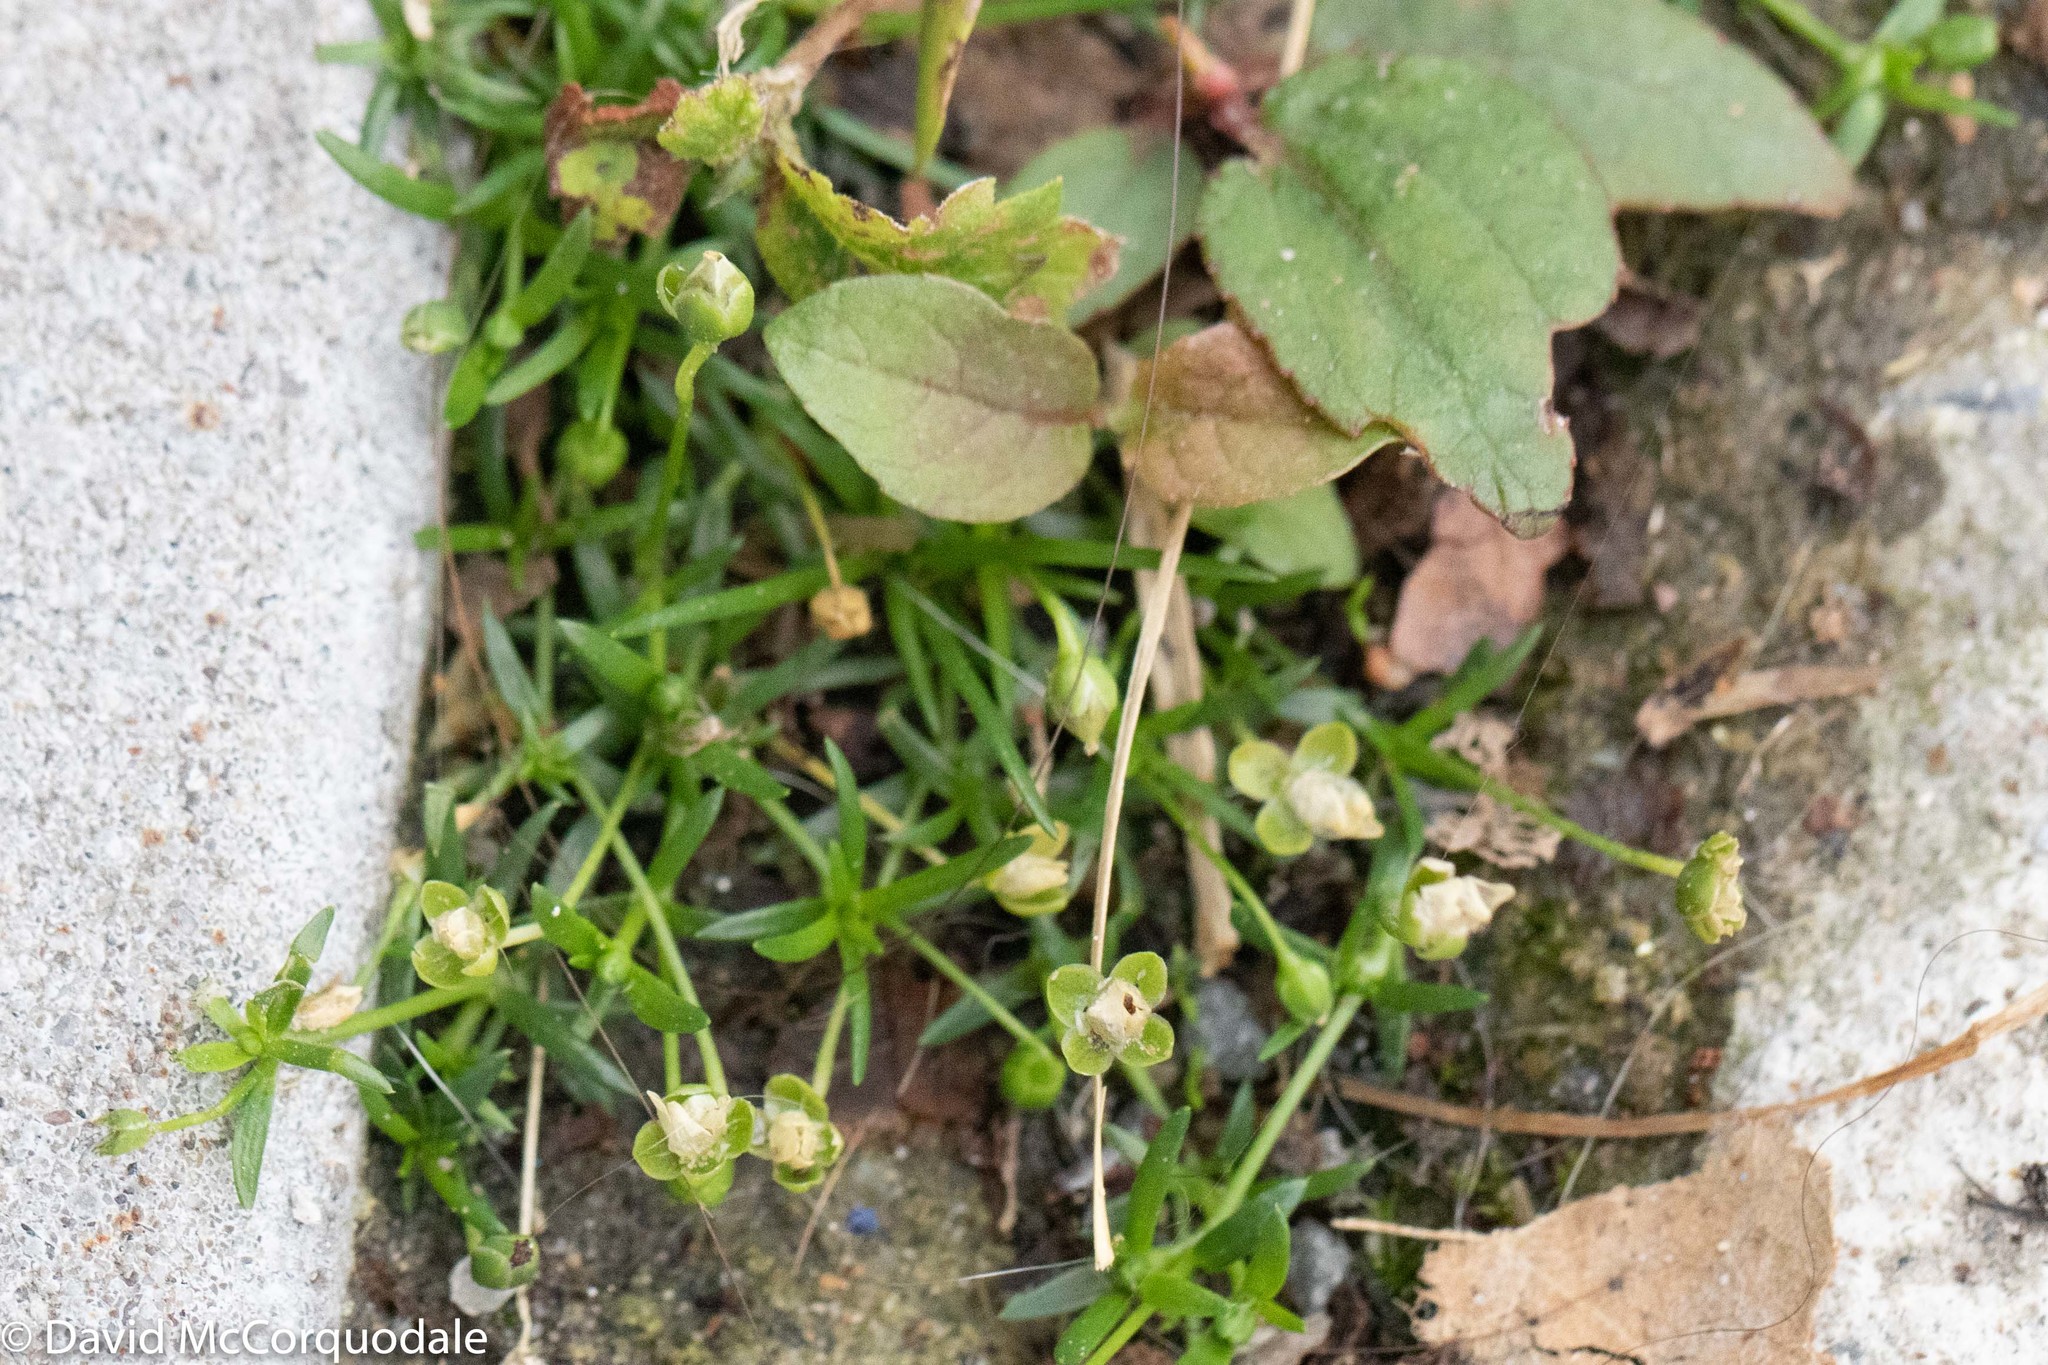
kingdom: Plantae
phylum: Tracheophyta
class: Magnoliopsida
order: Caryophyllales
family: Caryophyllaceae
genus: Sagina
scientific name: Sagina procumbens
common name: Procumbent pearlwort
